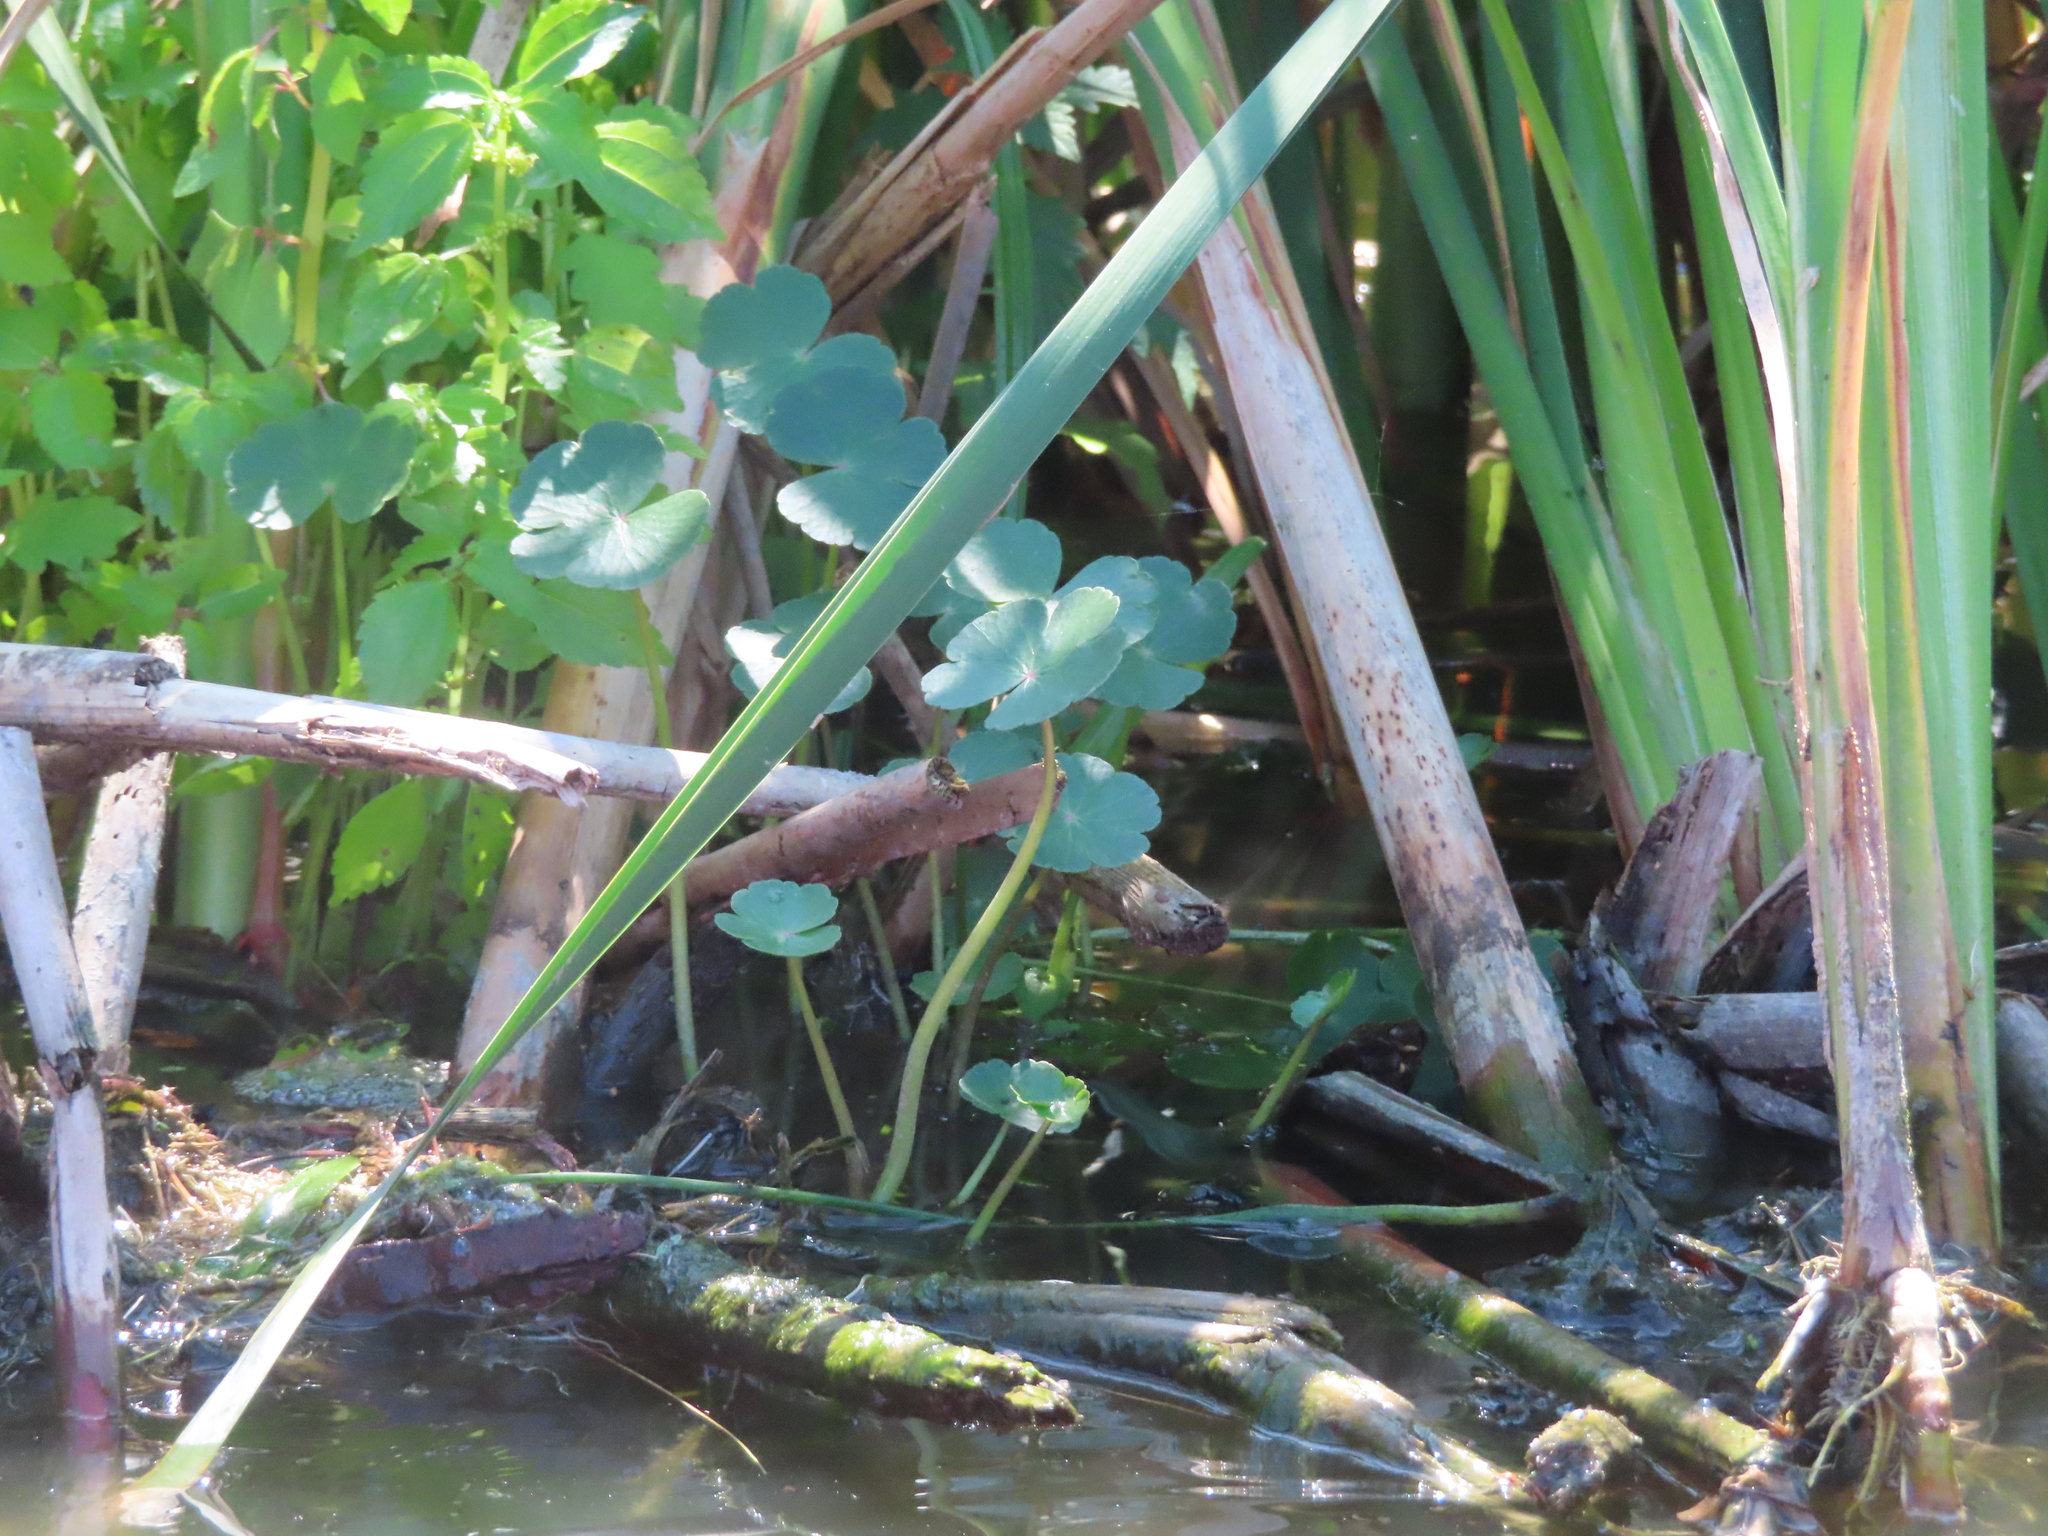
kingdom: Plantae
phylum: Tracheophyta
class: Magnoliopsida
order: Apiales
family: Araliaceae
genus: Hydrocotyle
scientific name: Hydrocotyle ranunculoides
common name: Floating pennywort
